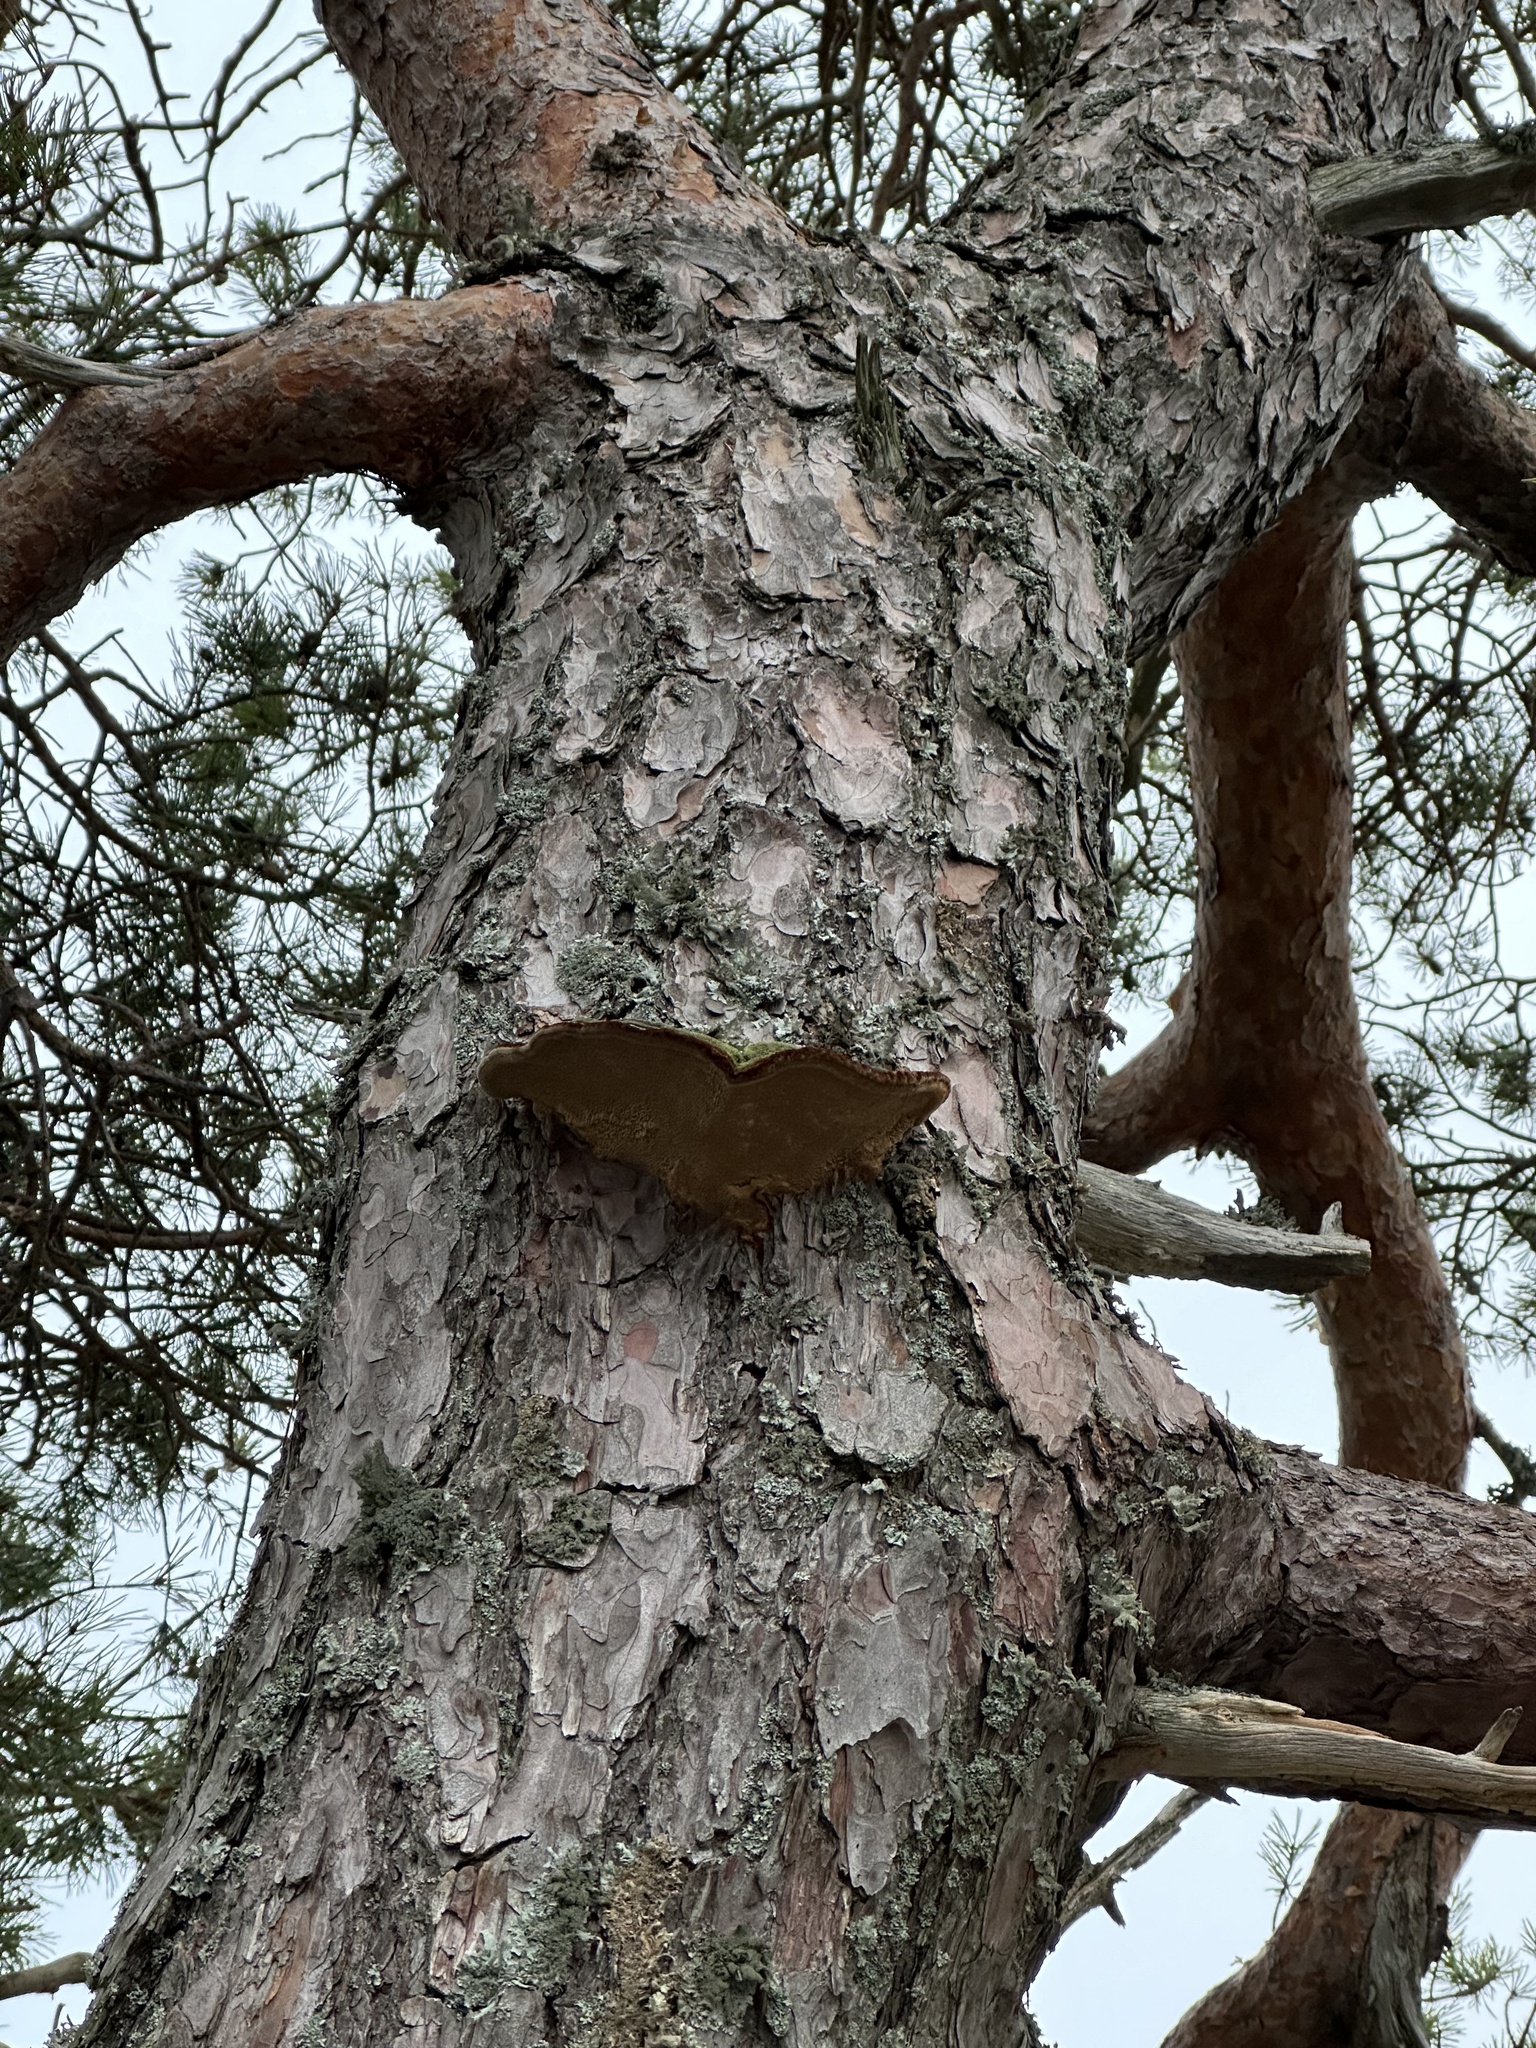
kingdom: Fungi
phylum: Basidiomycota
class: Agaricomycetes
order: Hymenochaetales
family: Hymenochaetaceae
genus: Porodaedalea
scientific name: Porodaedalea pini
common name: Pine bracket
